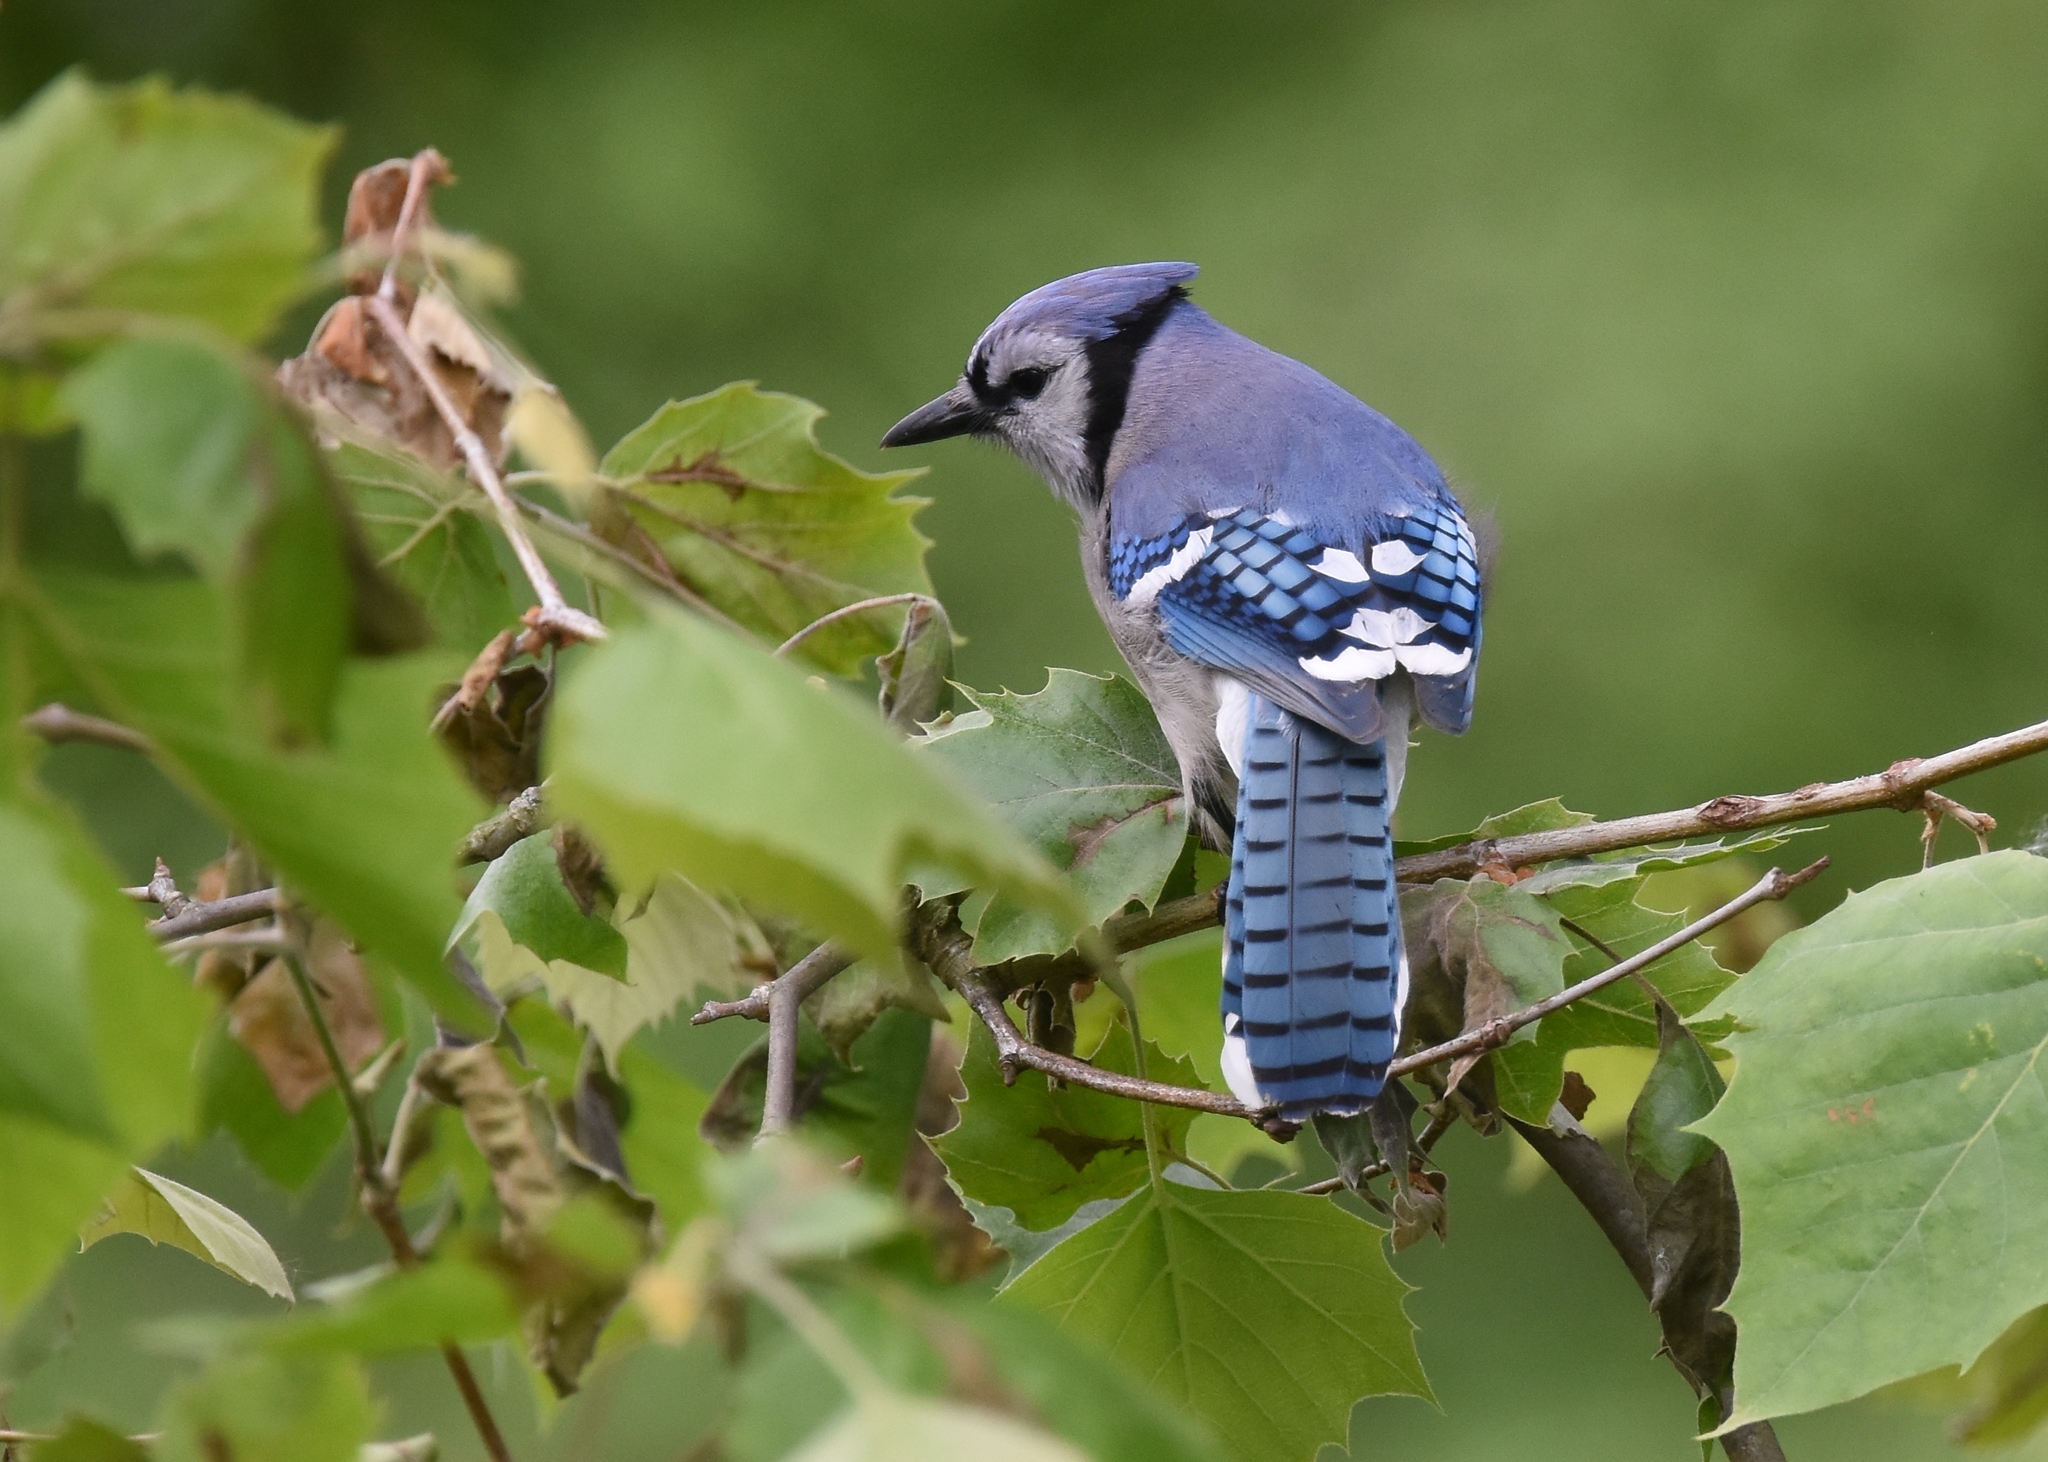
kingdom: Animalia
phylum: Chordata
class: Aves
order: Passeriformes
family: Corvidae
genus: Cyanocitta
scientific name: Cyanocitta cristata
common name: Blue jay
